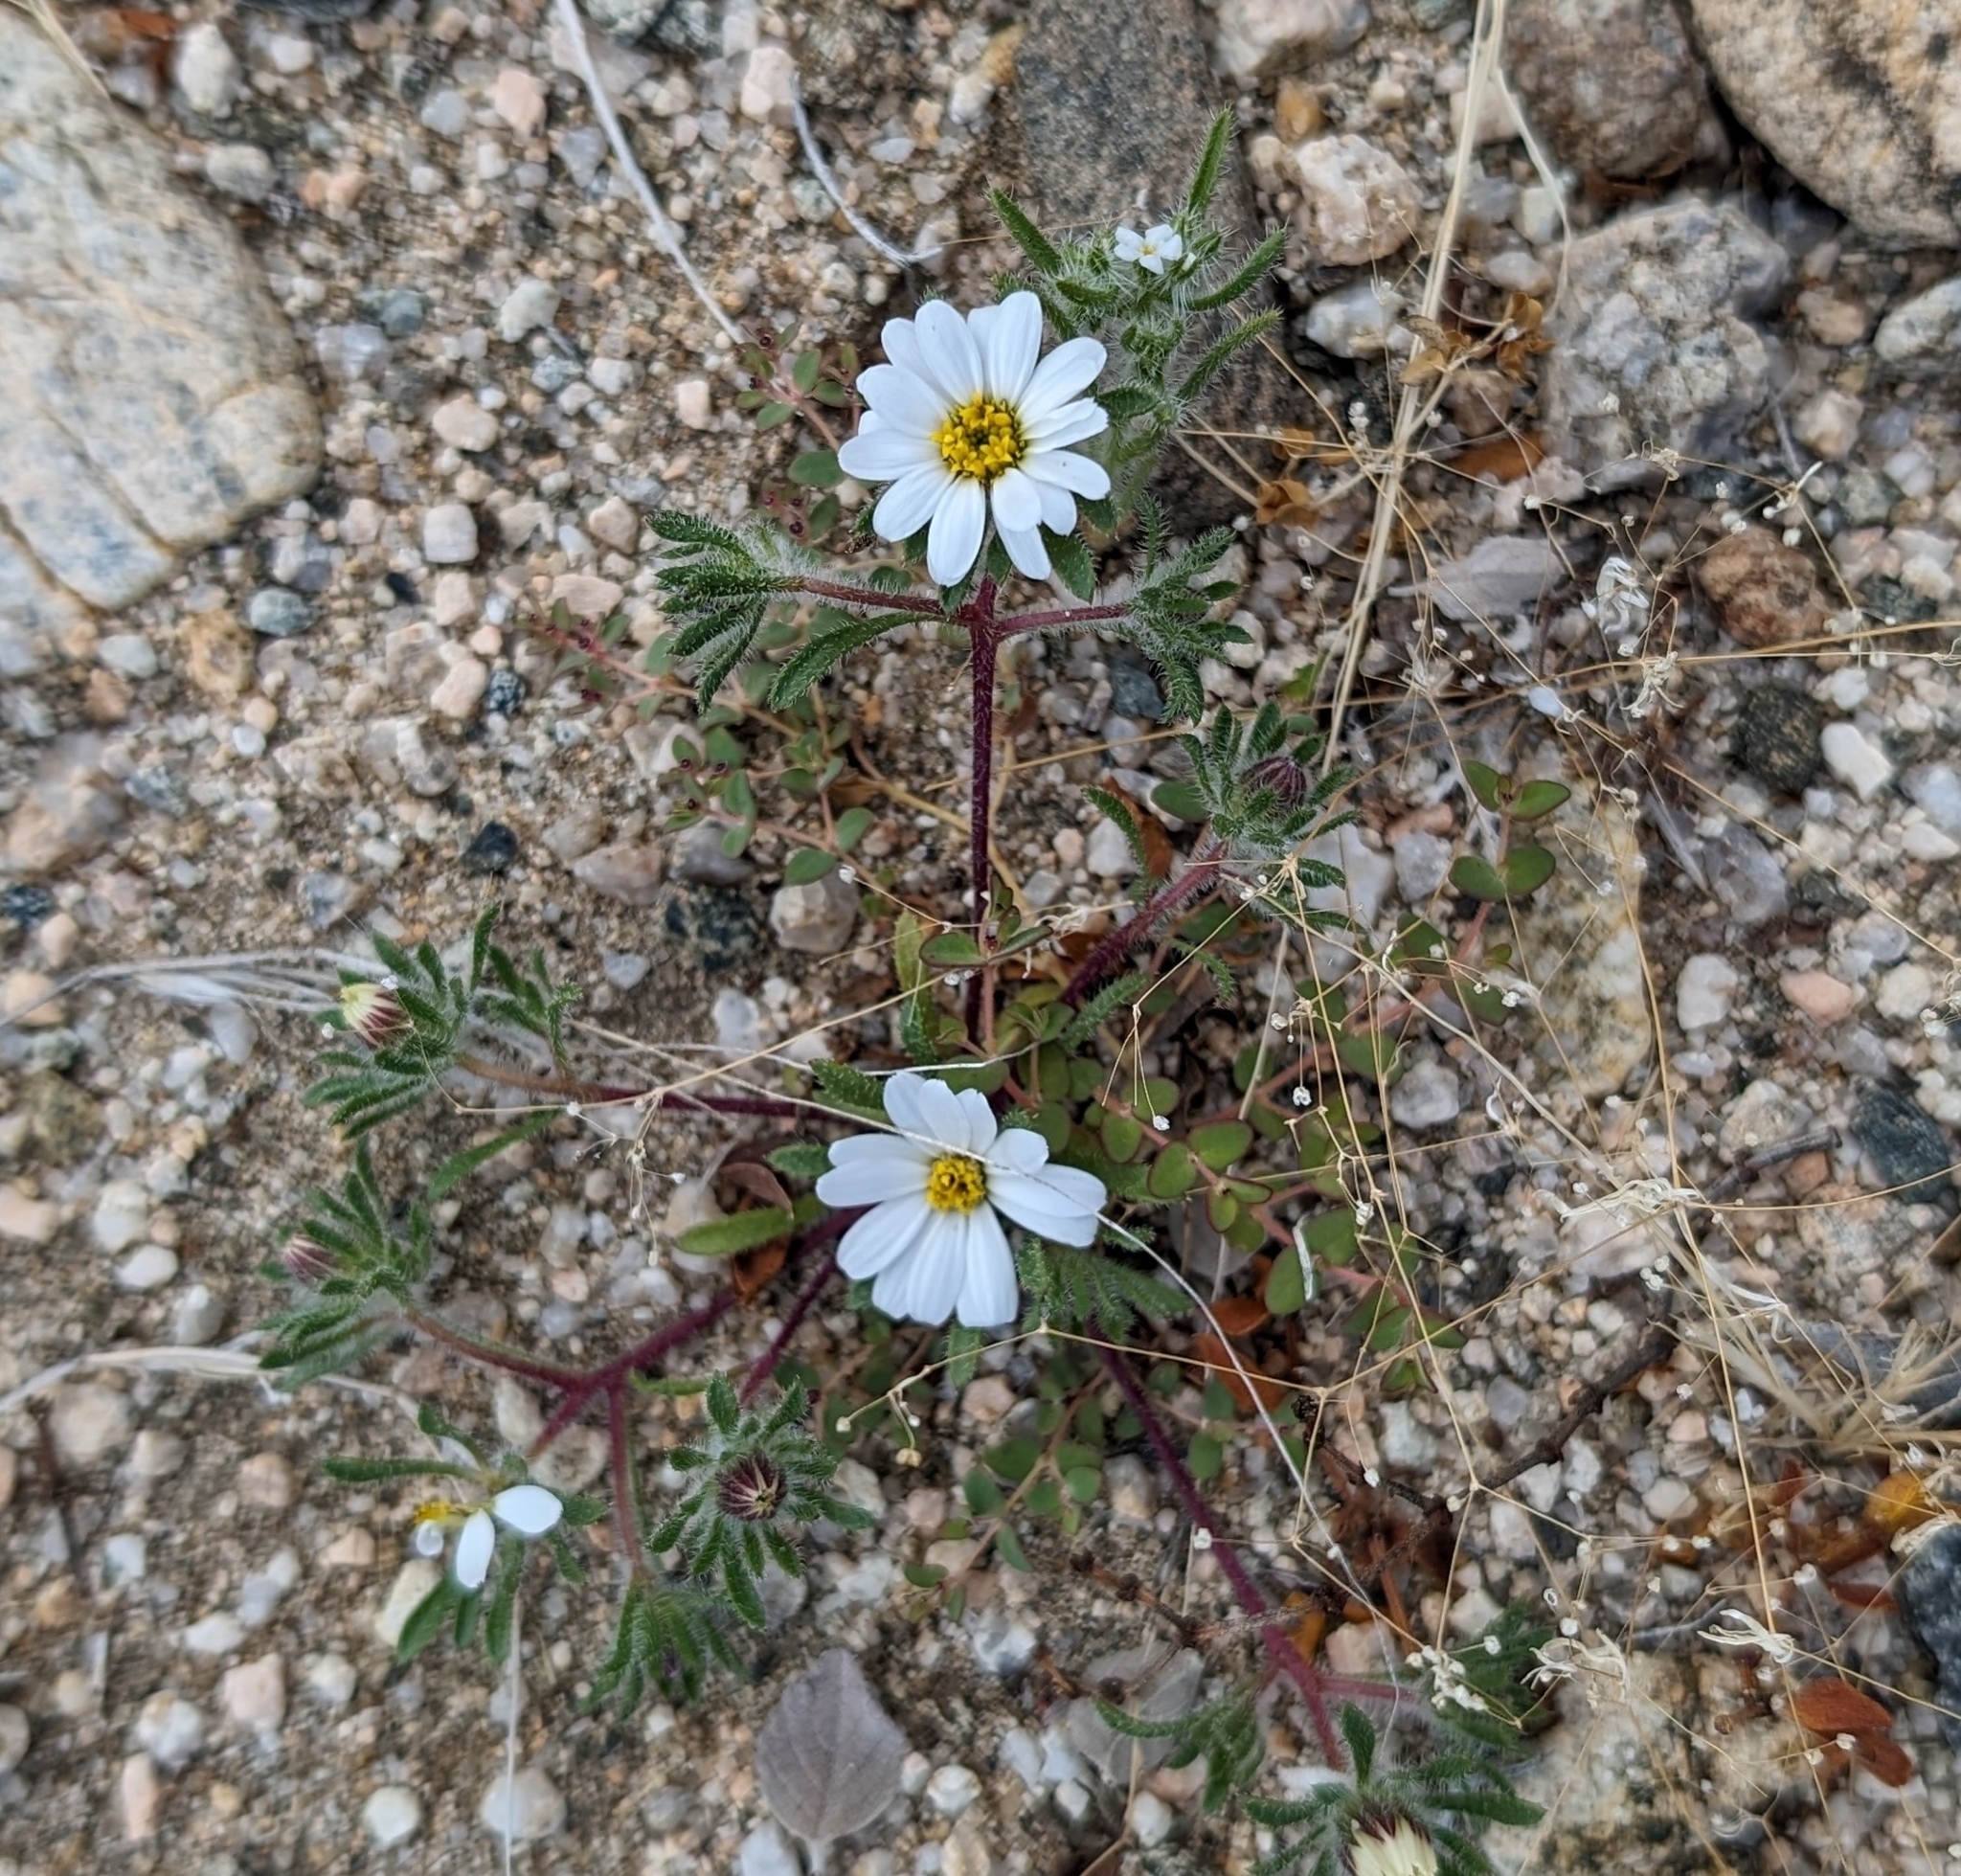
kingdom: Plantae
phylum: Tracheophyta
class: Magnoliopsida
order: Asterales
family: Asteraceae
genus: Monoptilon
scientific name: Monoptilon bellioides
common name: Bristly desertstar
